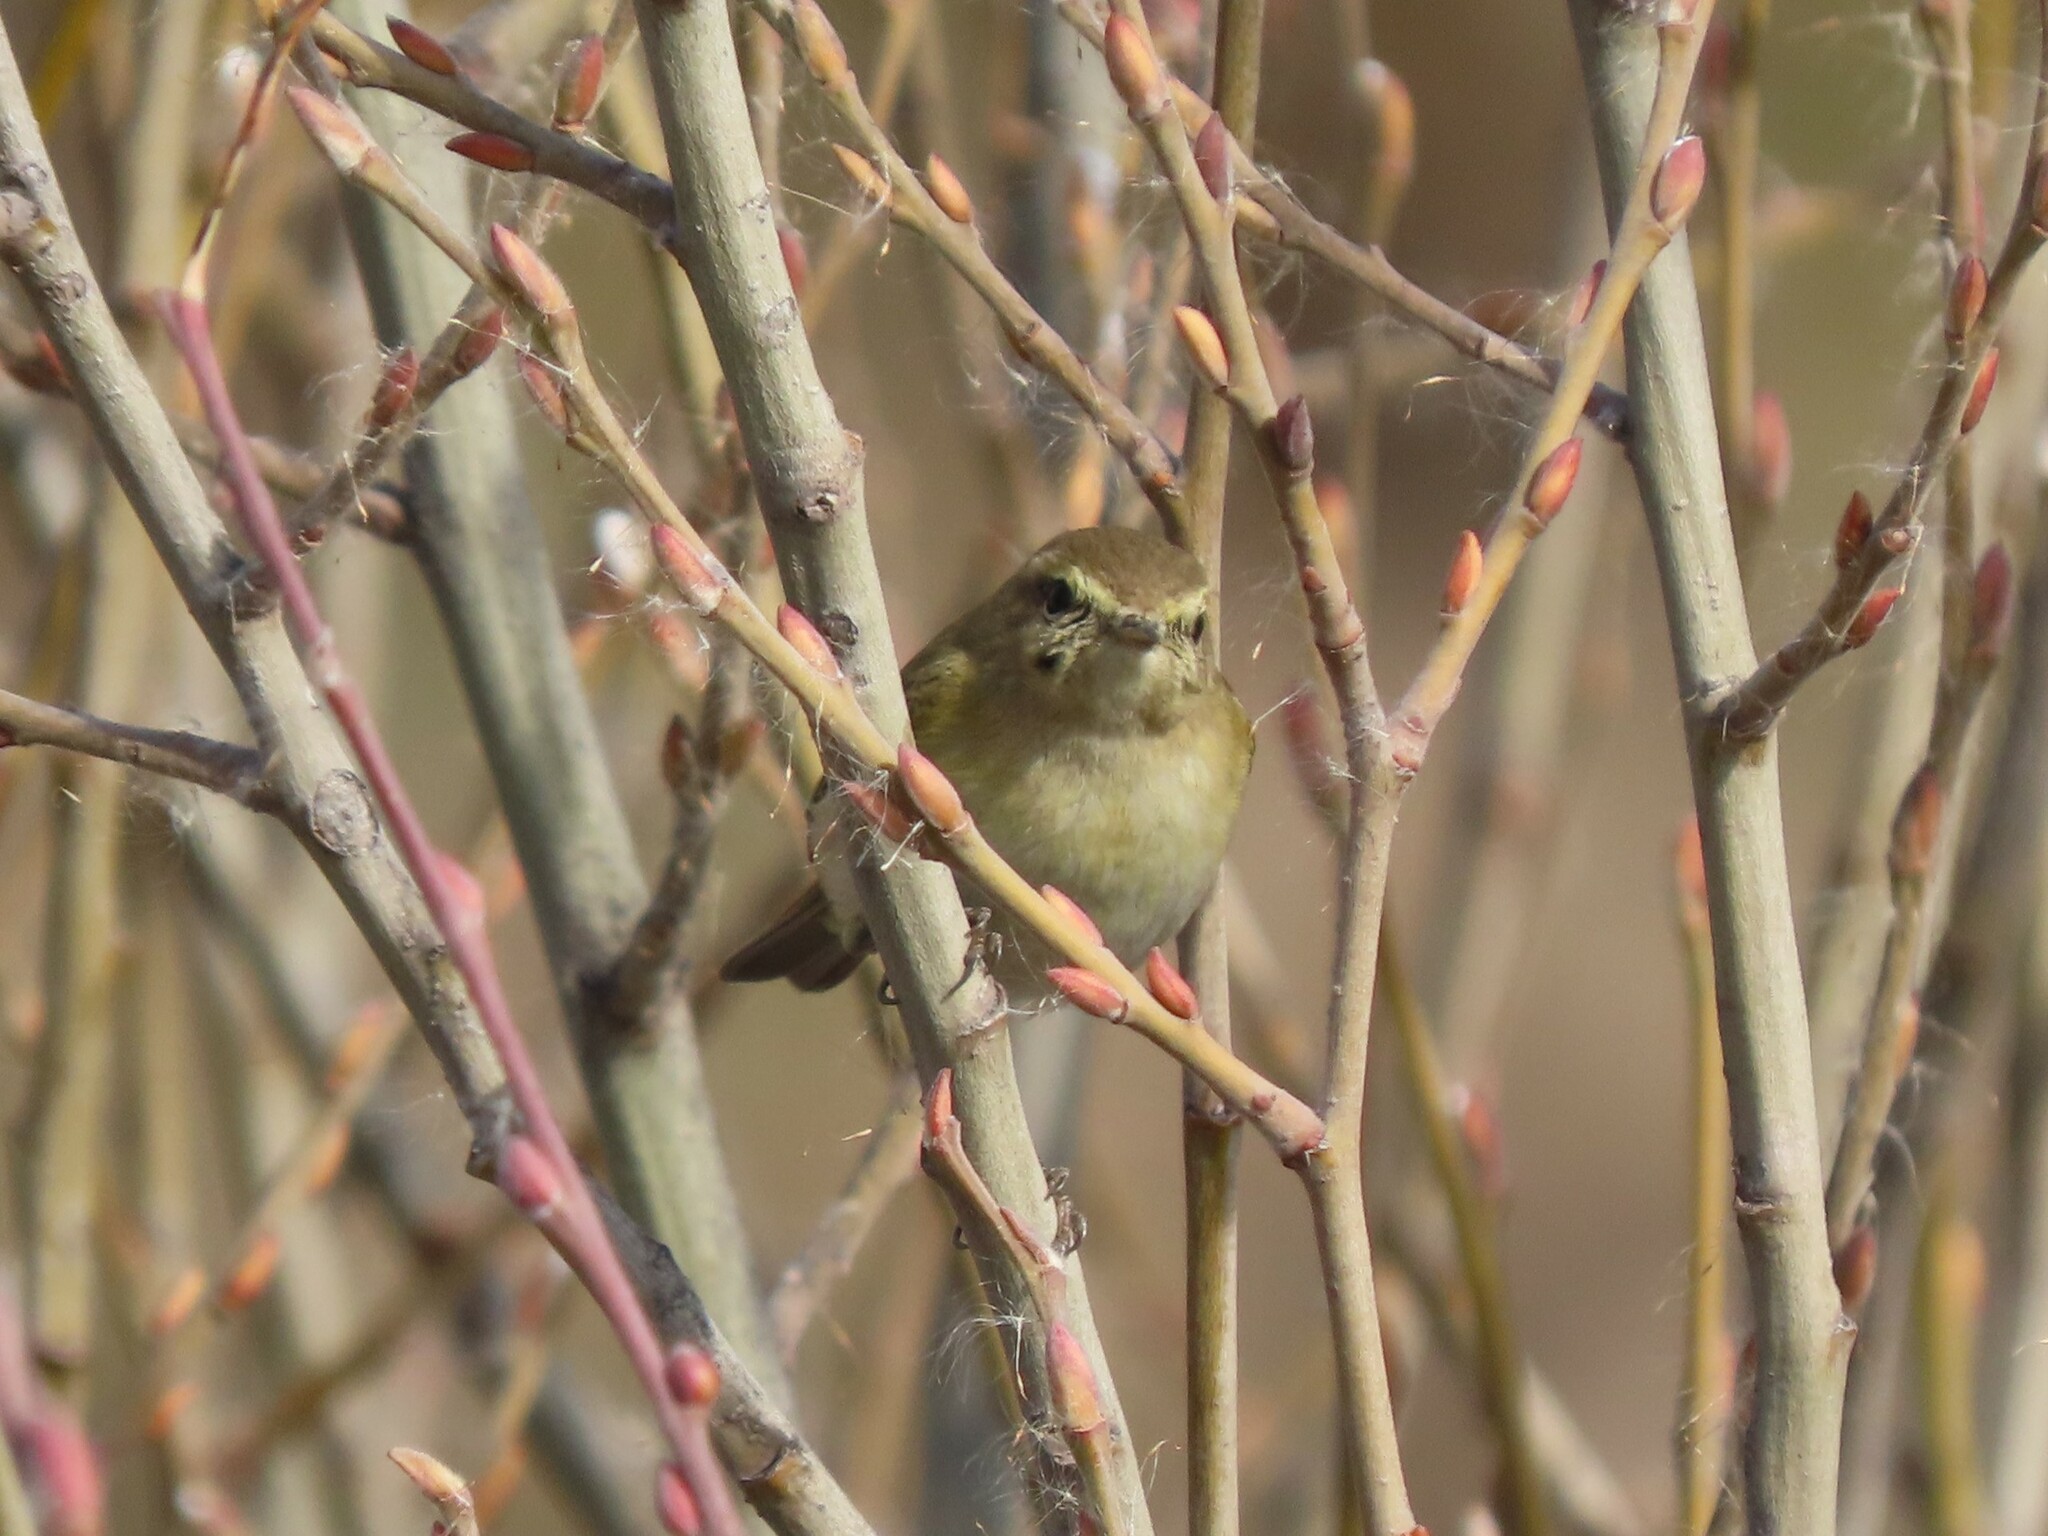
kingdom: Animalia
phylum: Chordata
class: Aves
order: Passeriformes
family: Phylloscopidae
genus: Phylloscopus
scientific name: Phylloscopus collybita
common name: Common chiffchaff
